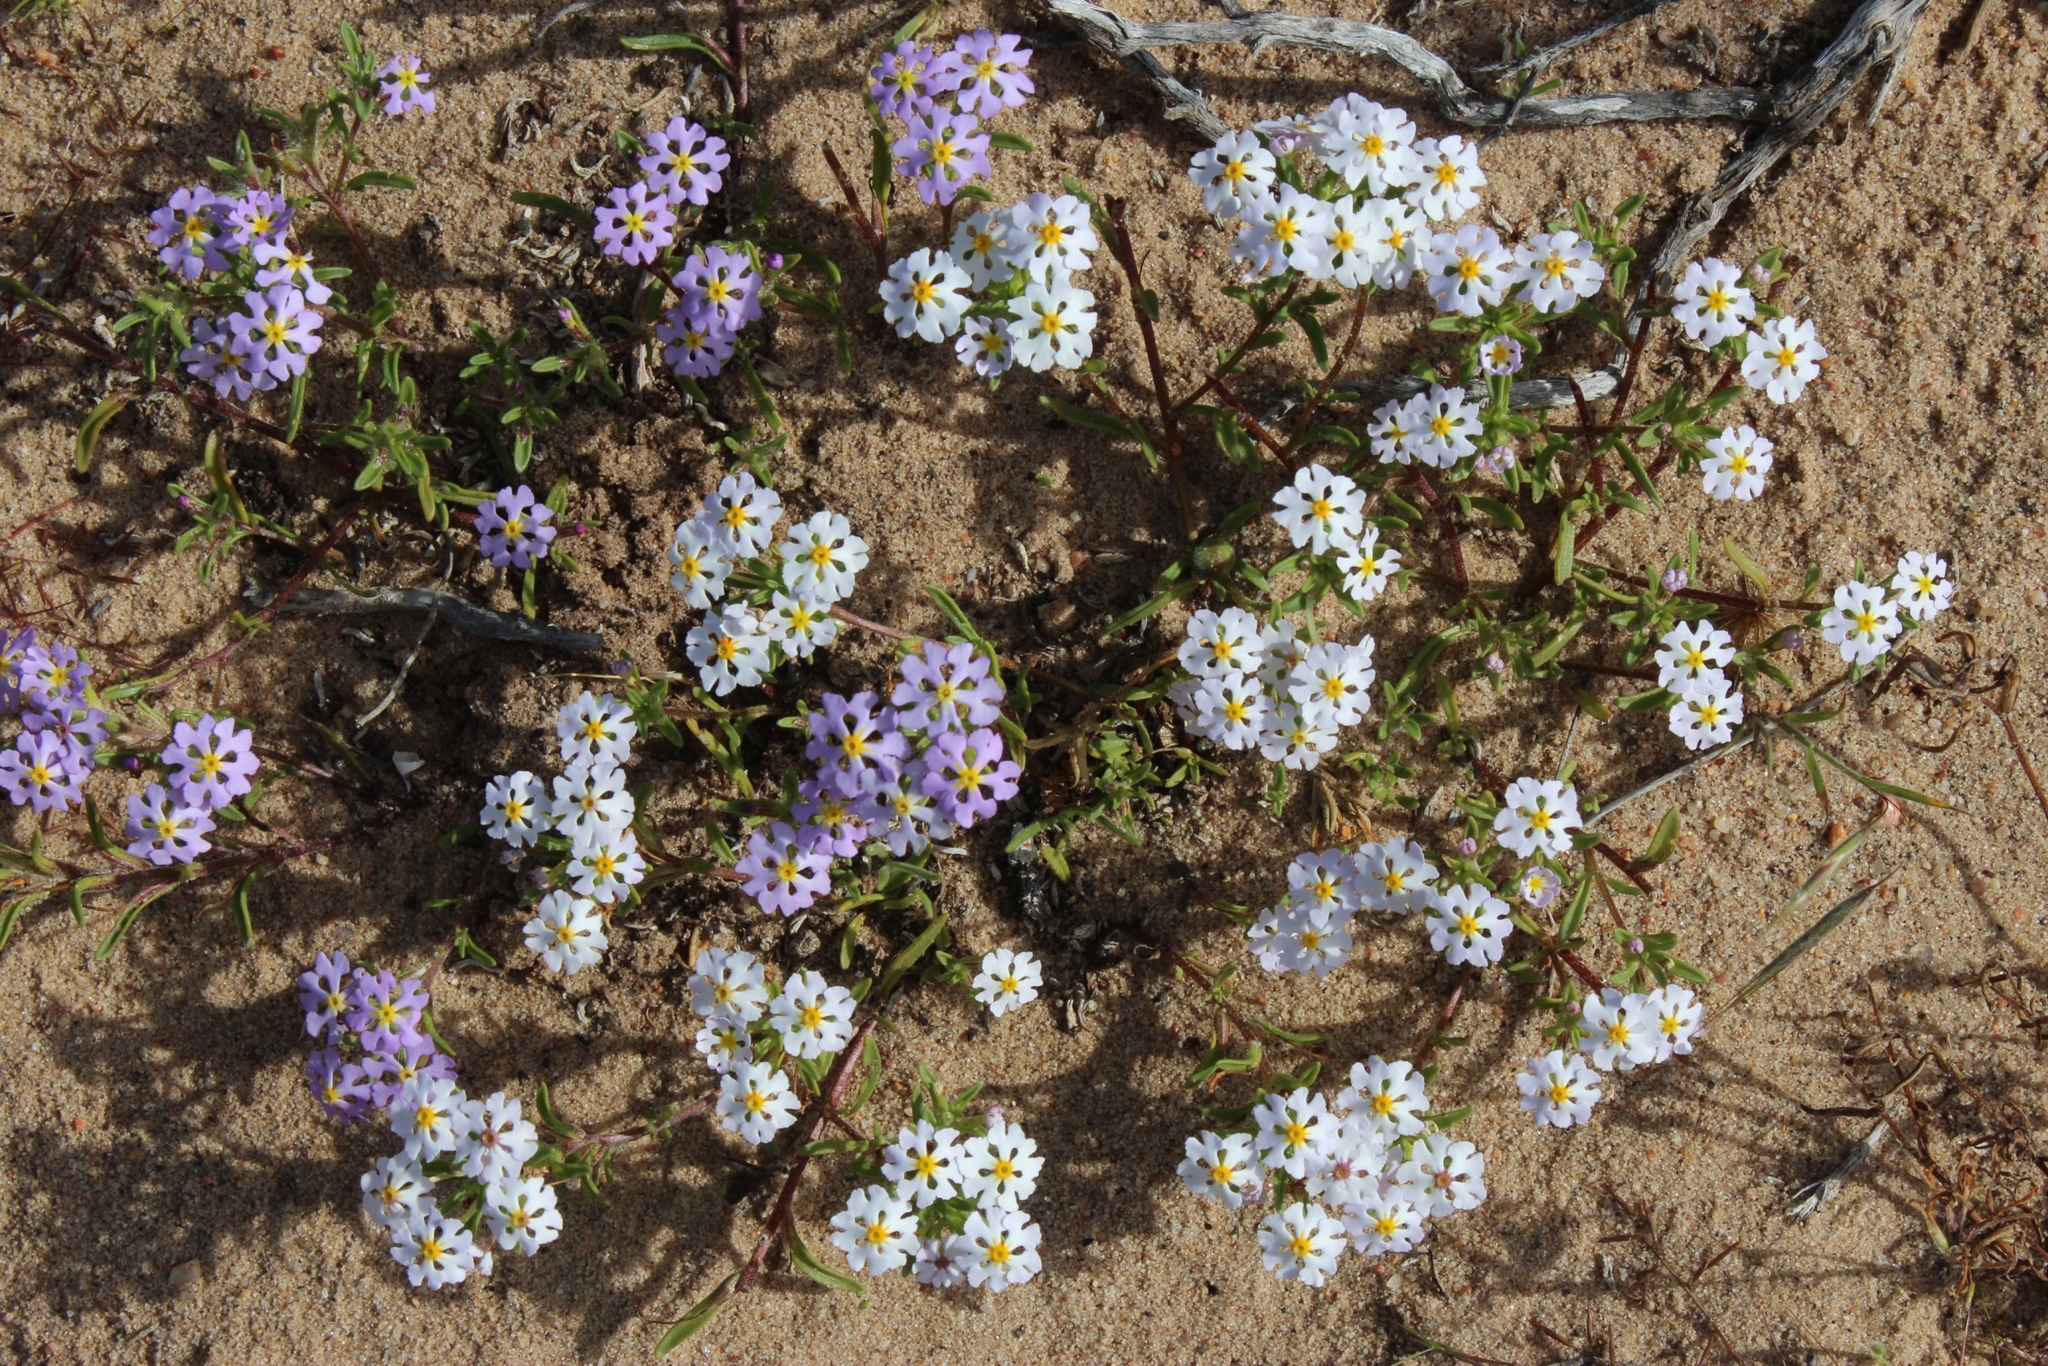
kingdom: Plantae
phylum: Tracheophyta
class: Magnoliopsida
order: Lamiales
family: Scrophulariaceae
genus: Zaluzianskya
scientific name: Zaluzianskya affinis
